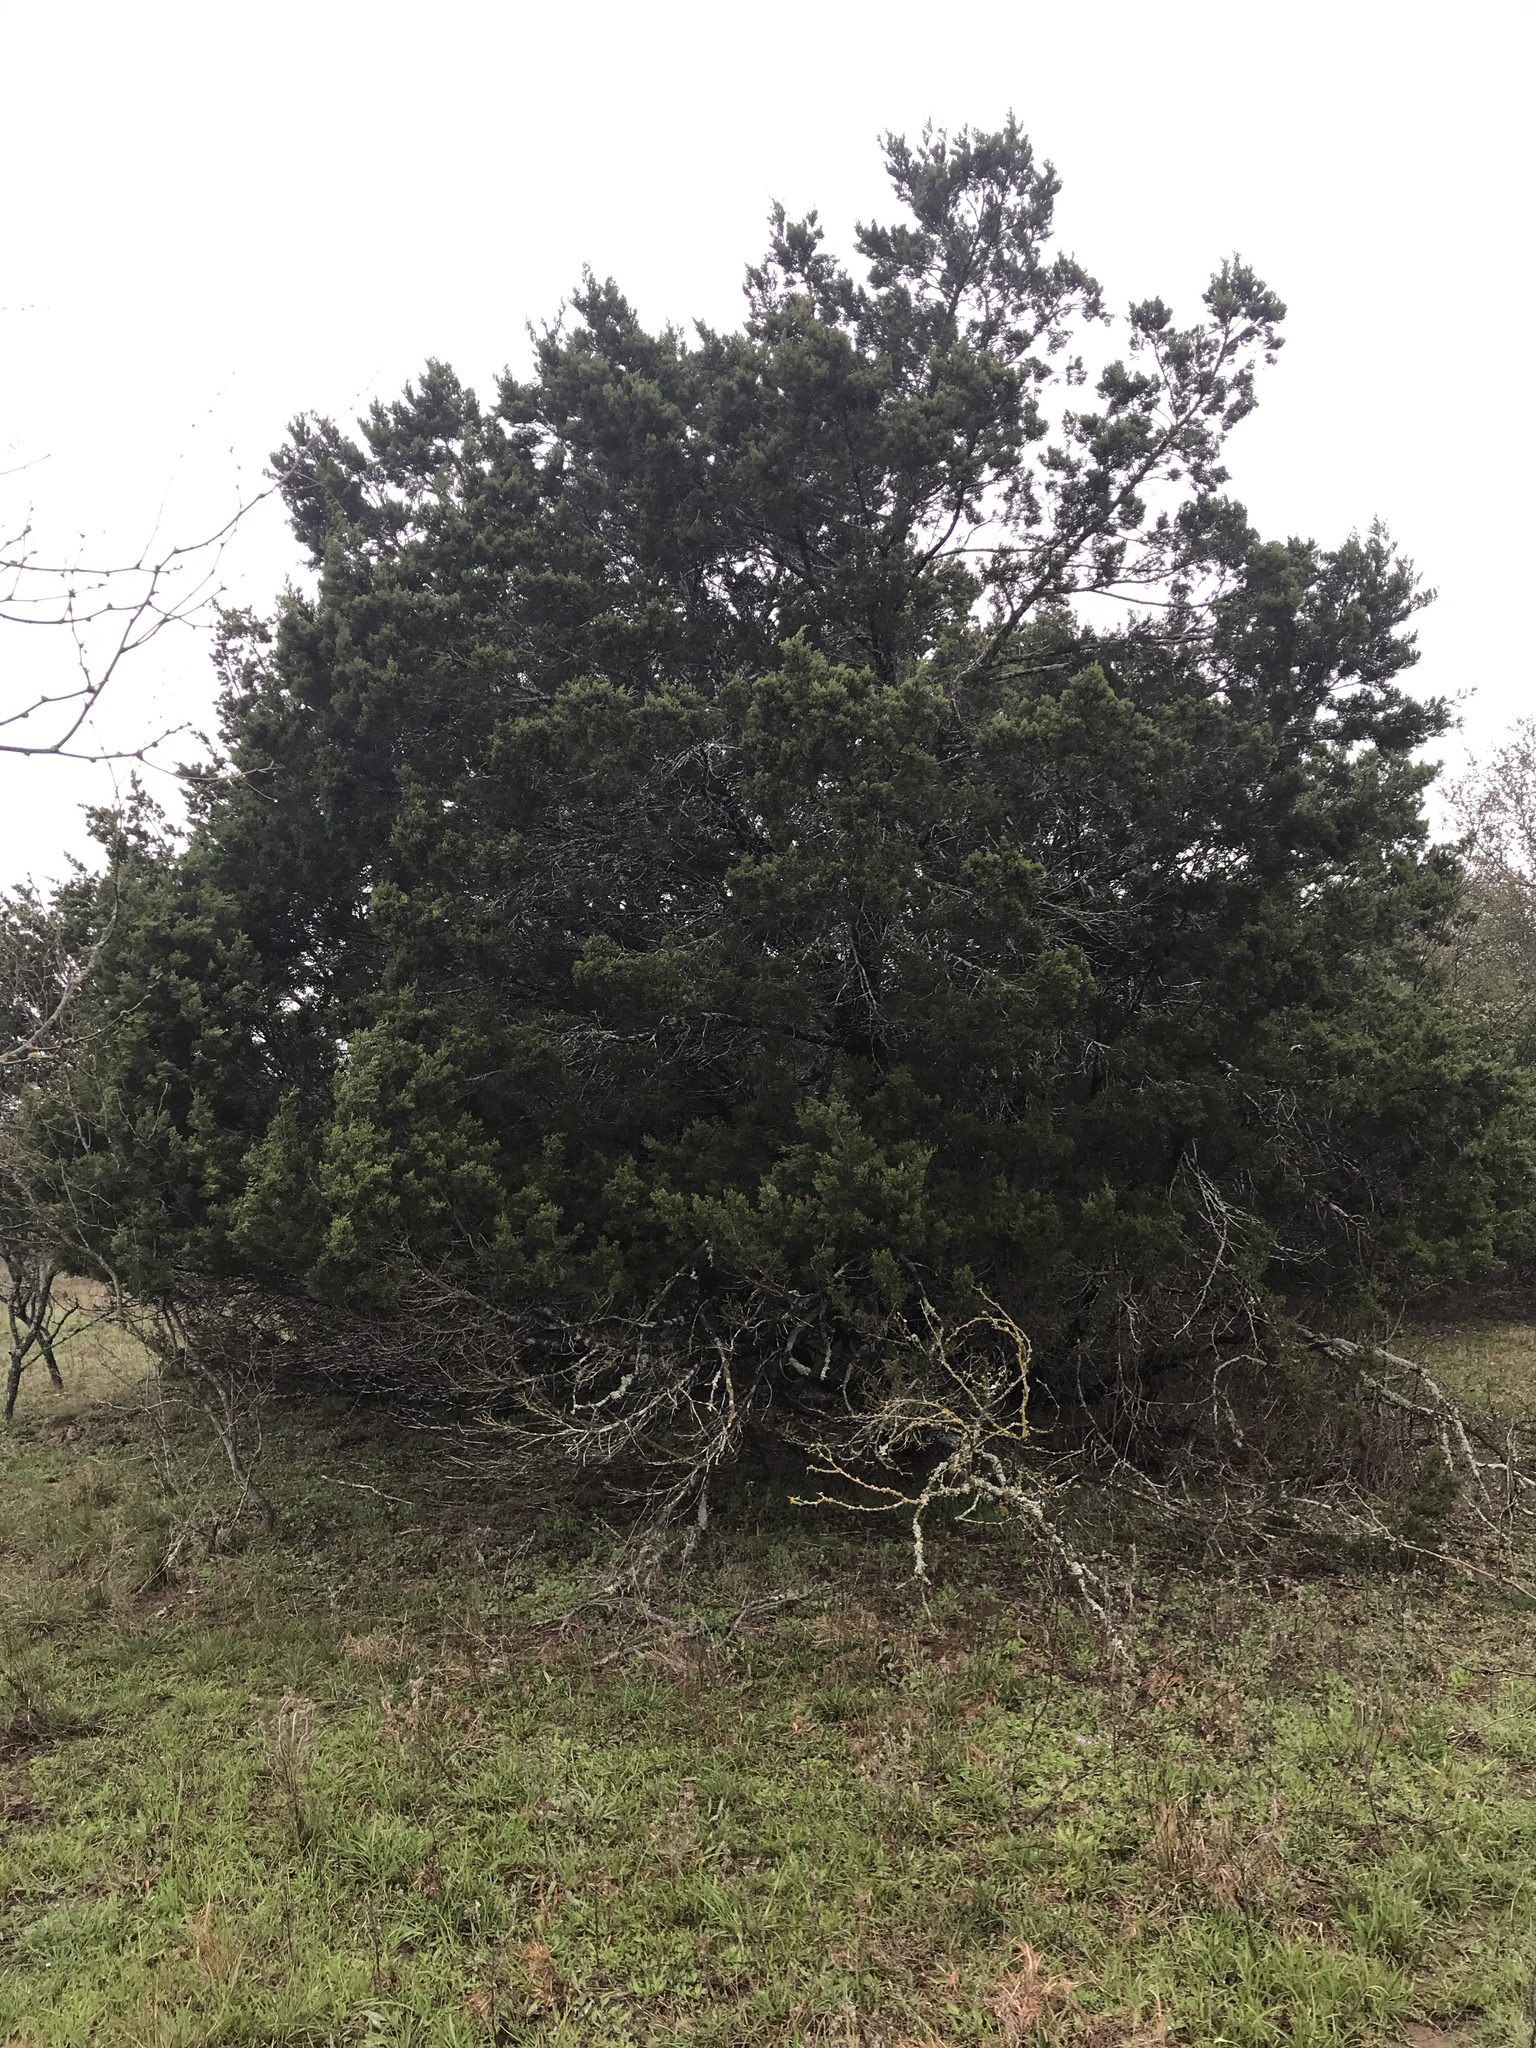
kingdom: Plantae
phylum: Tracheophyta
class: Pinopsida
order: Pinales
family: Cupressaceae
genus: Juniperus
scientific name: Juniperus ashei
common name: Mexican juniper
